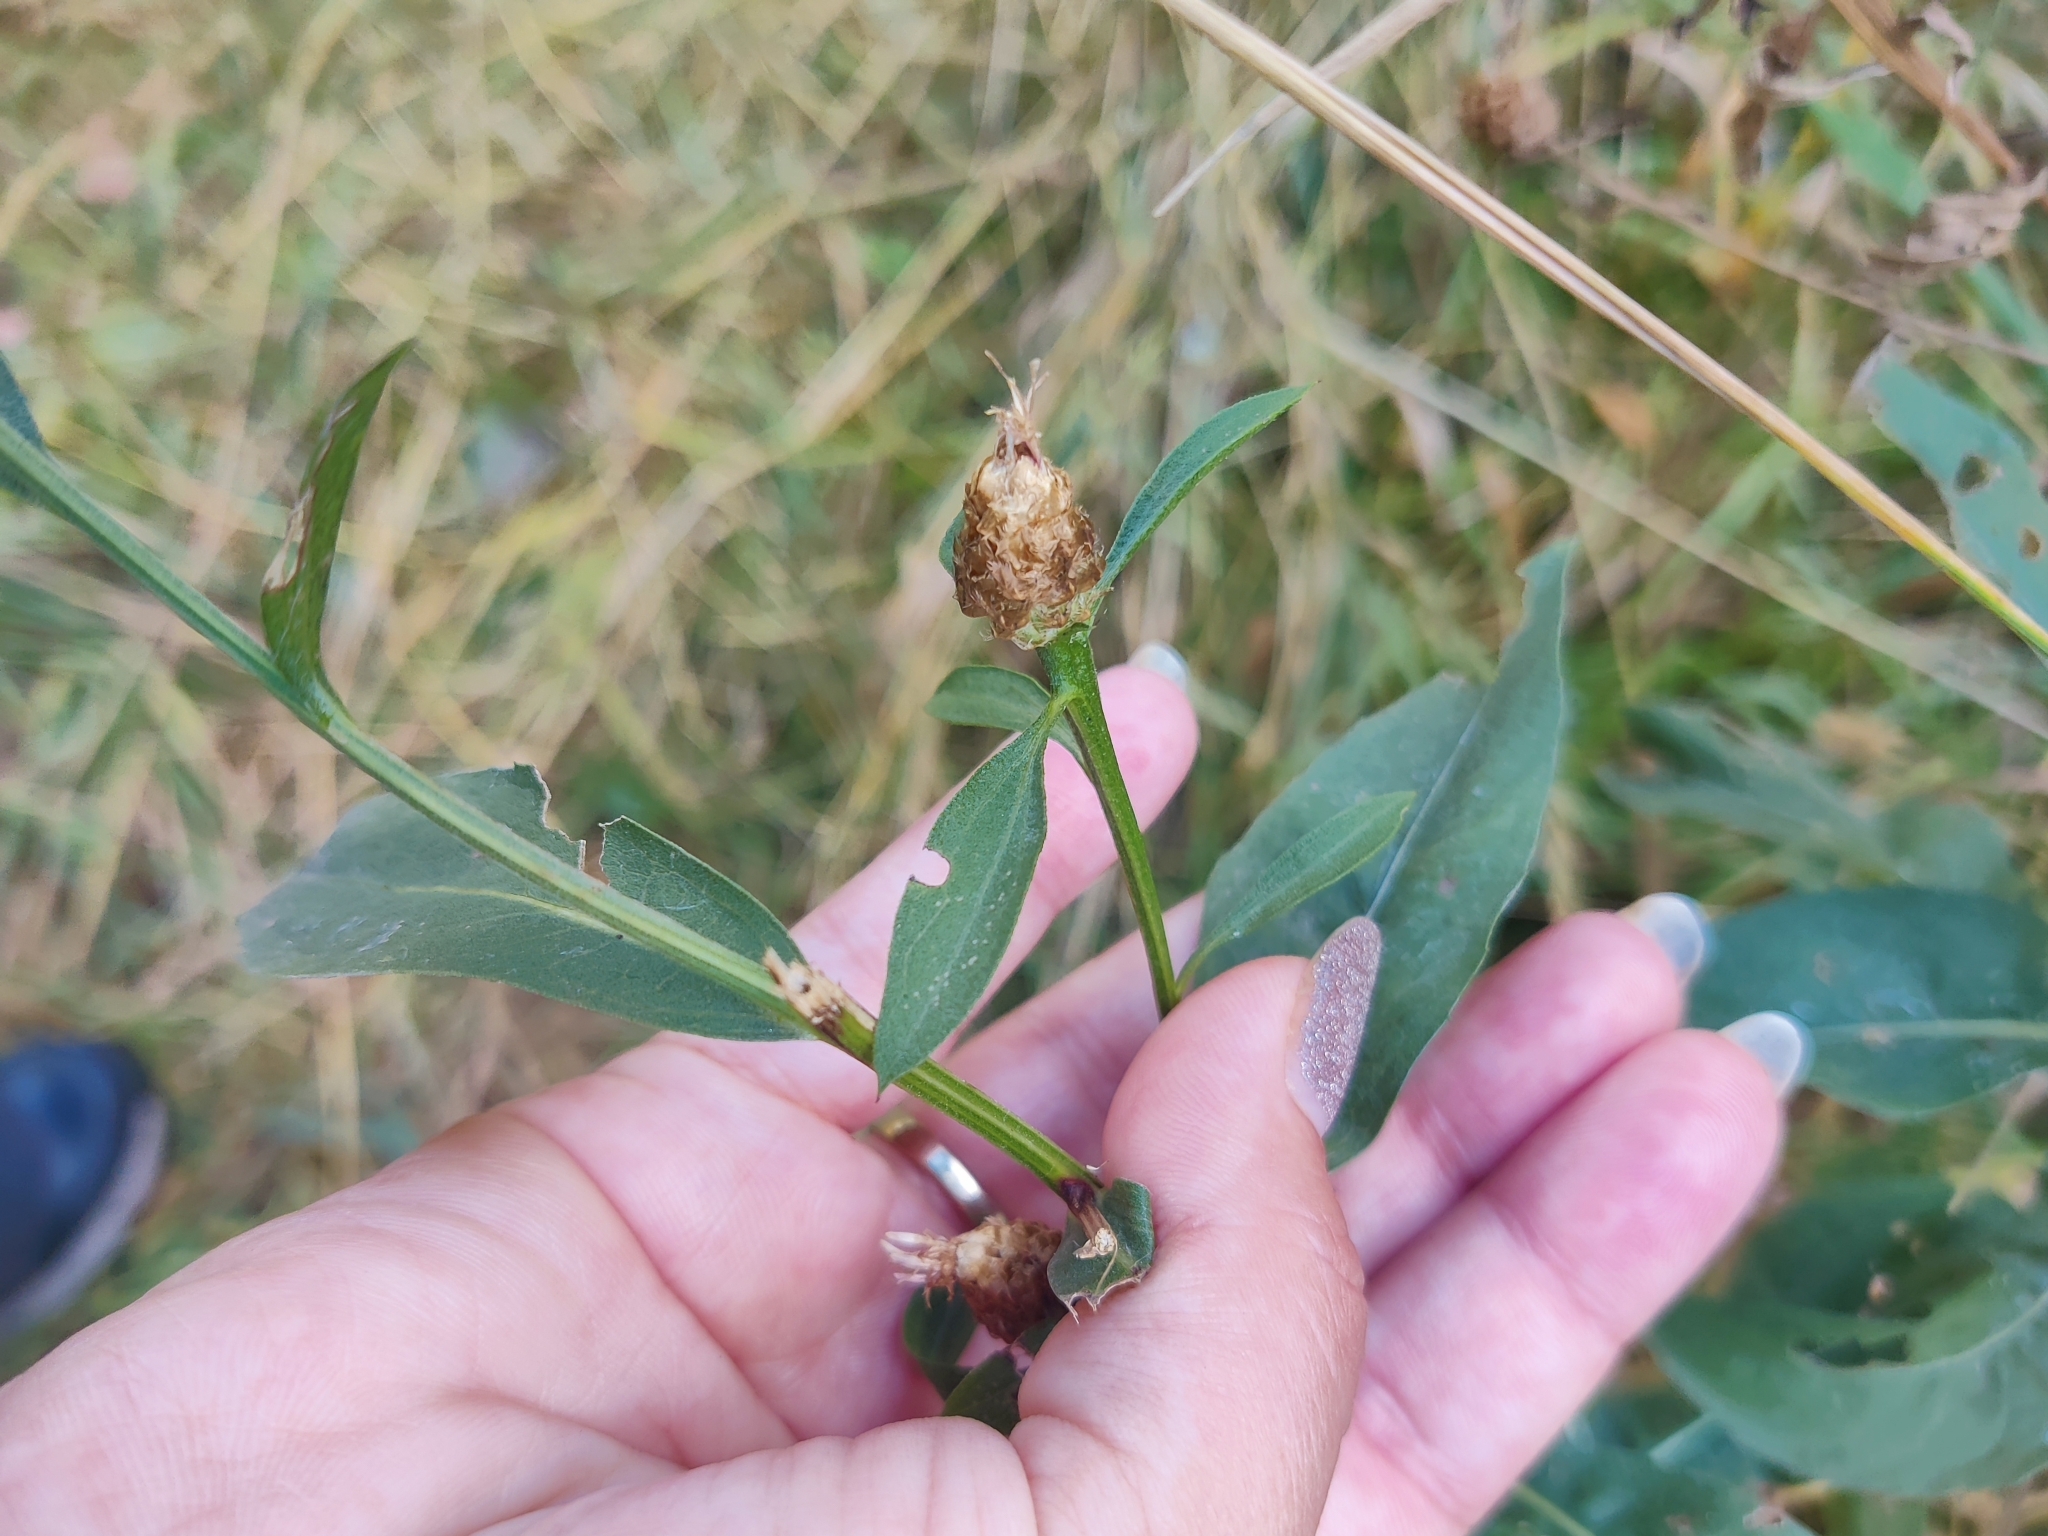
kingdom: Plantae
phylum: Tracheophyta
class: Magnoliopsida
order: Asterales
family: Asteraceae
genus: Centaurea
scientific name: Centaurea jacea
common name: Brown knapweed
